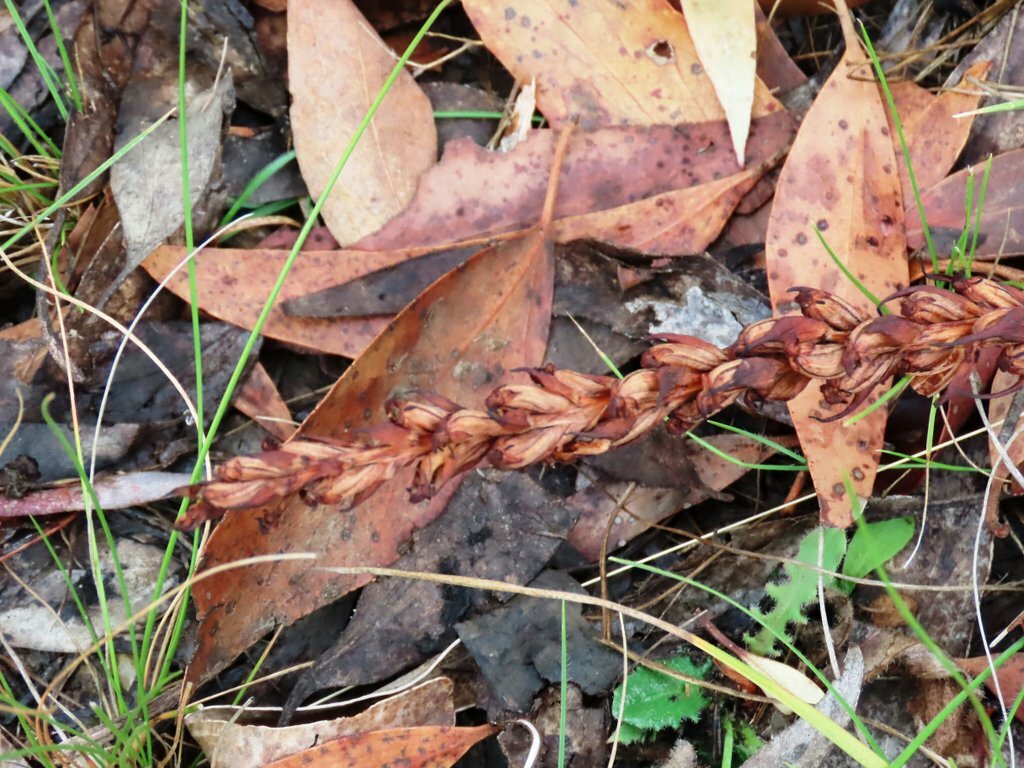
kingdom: Plantae
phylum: Tracheophyta
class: Liliopsida
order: Asparagales
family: Orchidaceae
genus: Disa
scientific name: Disa bracteata
